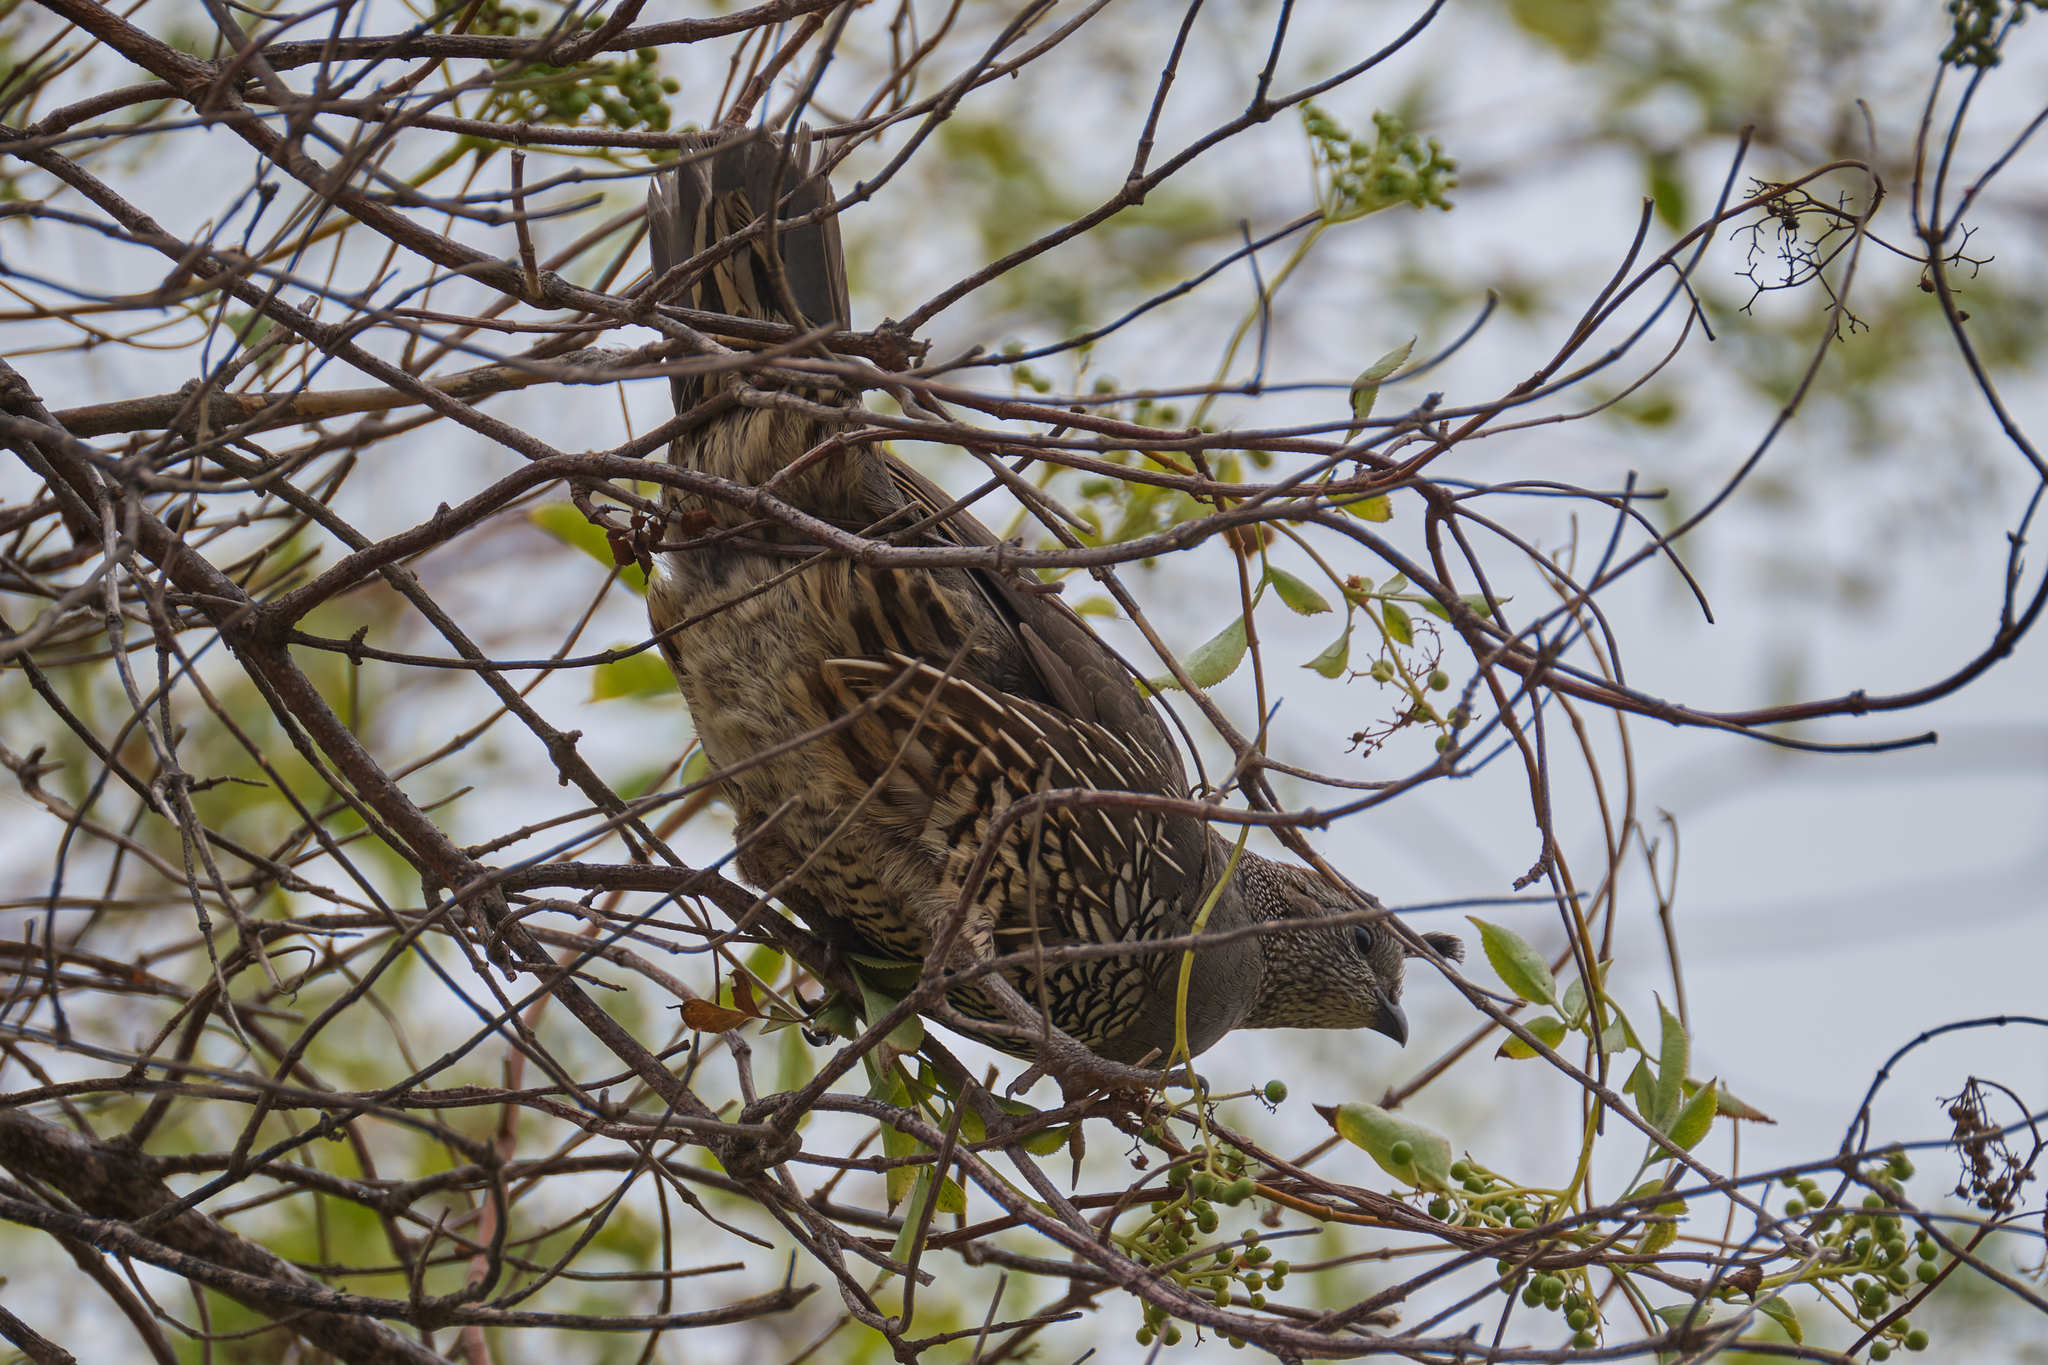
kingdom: Animalia
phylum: Chordata
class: Aves
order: Galliformes
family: Odontophoridae
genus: Callipepla
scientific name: Callipepla californica
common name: California quail
